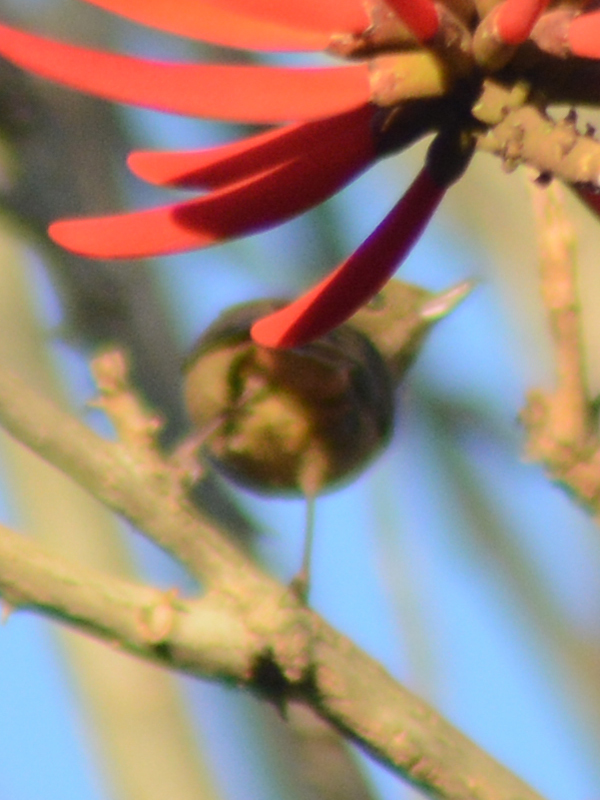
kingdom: Animalia
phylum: Chordata
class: Aves
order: Passeriformes
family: Thraupidae
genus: Diglossa
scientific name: Diglossa baritula
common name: Cinnamon-bellied flowerpiercer
